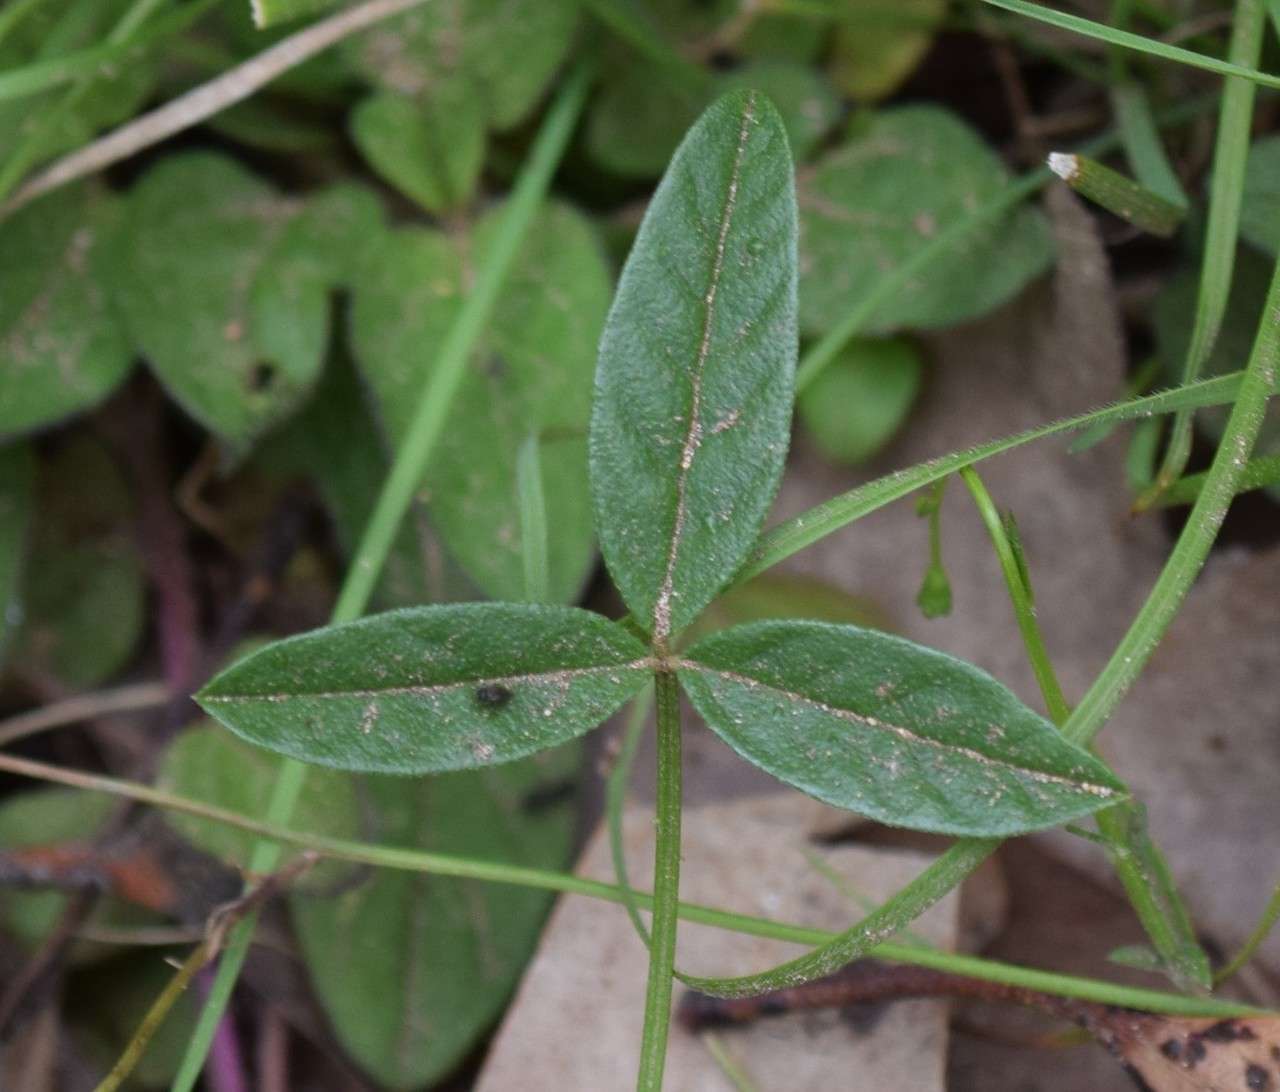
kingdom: Plantae
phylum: Tracheophyta
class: Magnoliopsida
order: Fabales
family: Fabaceae
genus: Cullen
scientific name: Cullen microcephalum
